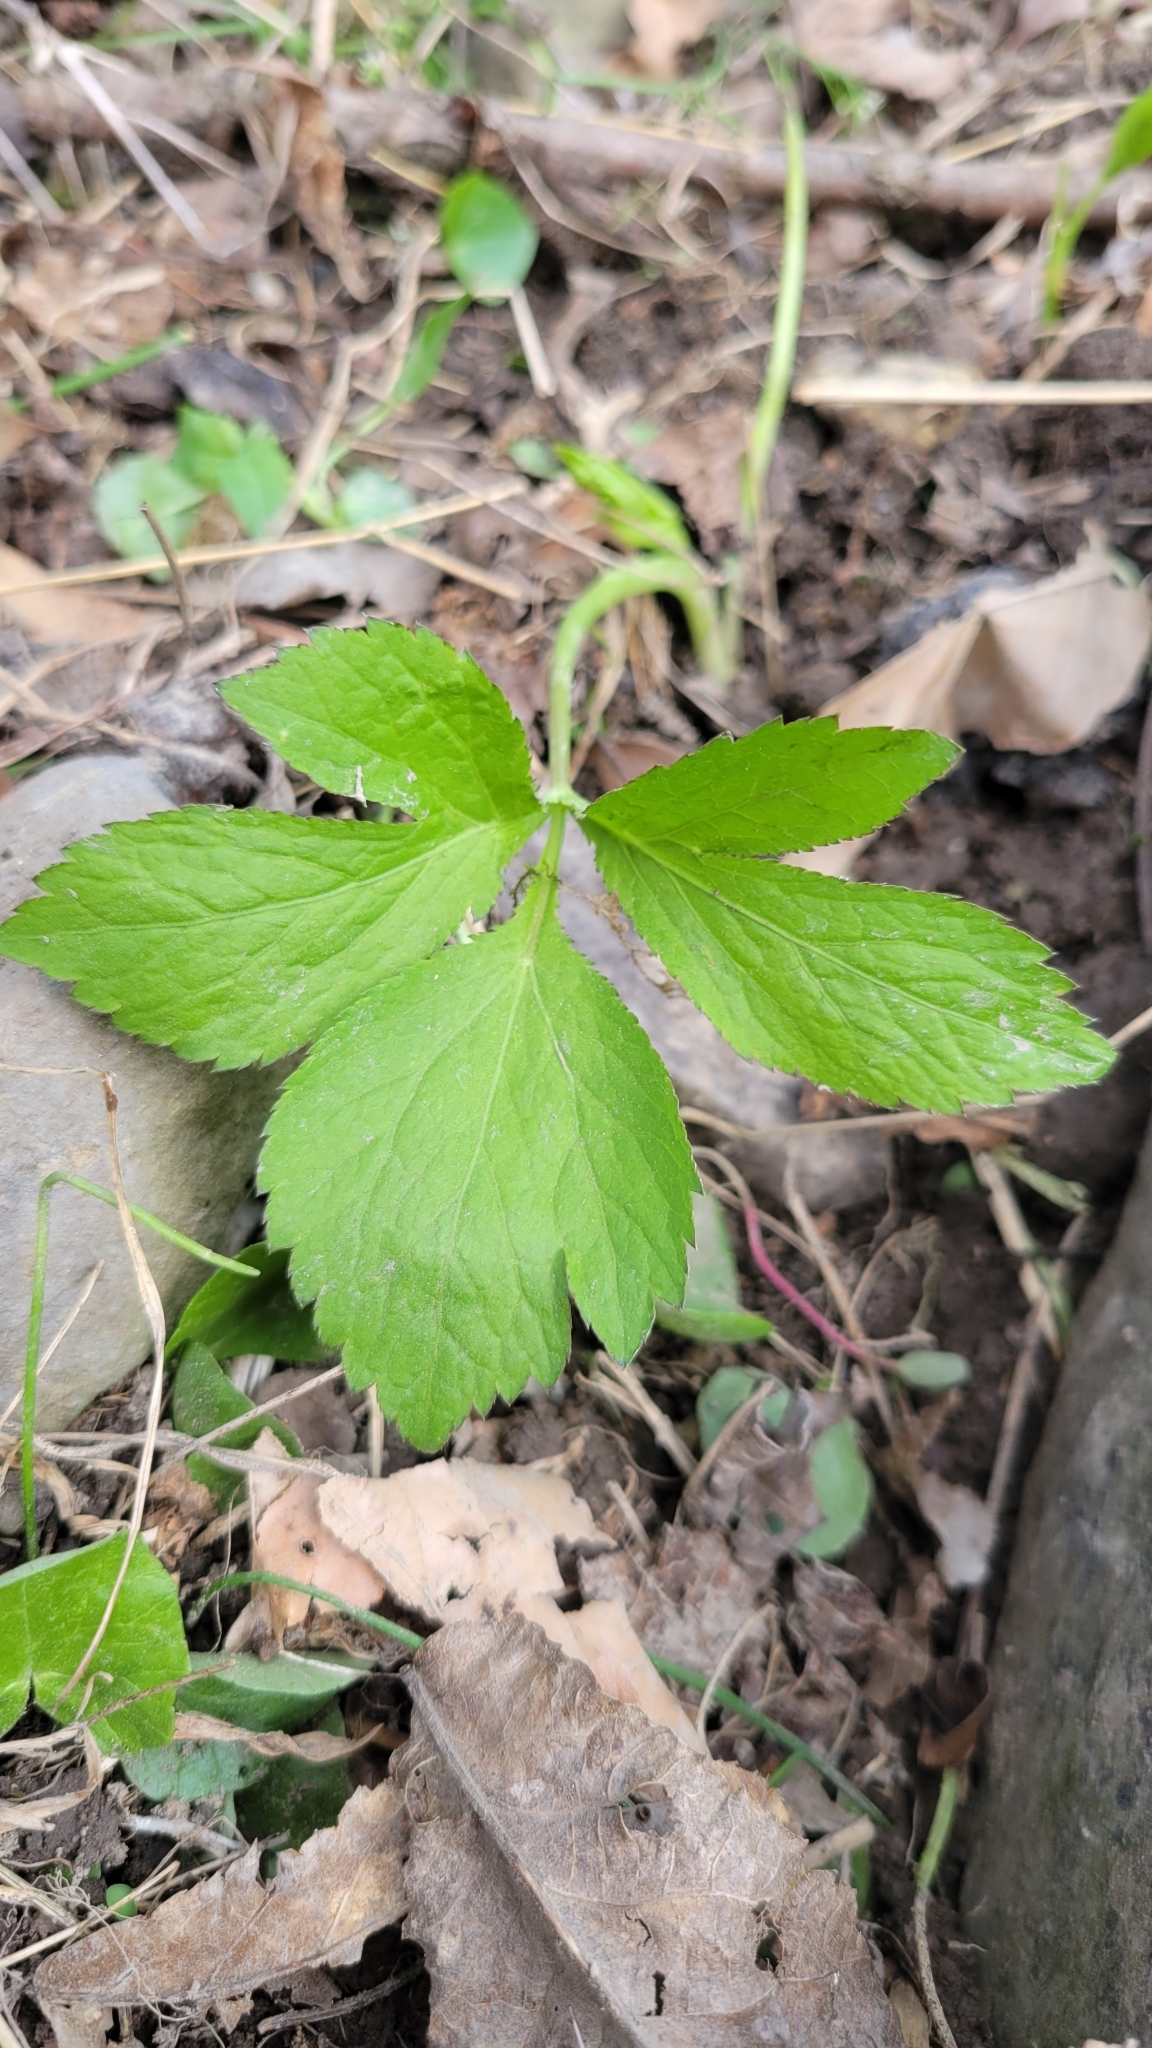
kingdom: Plantae
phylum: Tracheophyta
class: Magnoliopsida
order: Apiales
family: Apiaceae
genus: Cryptotaenia
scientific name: Cryptotaenia canadensis
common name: Honewort
